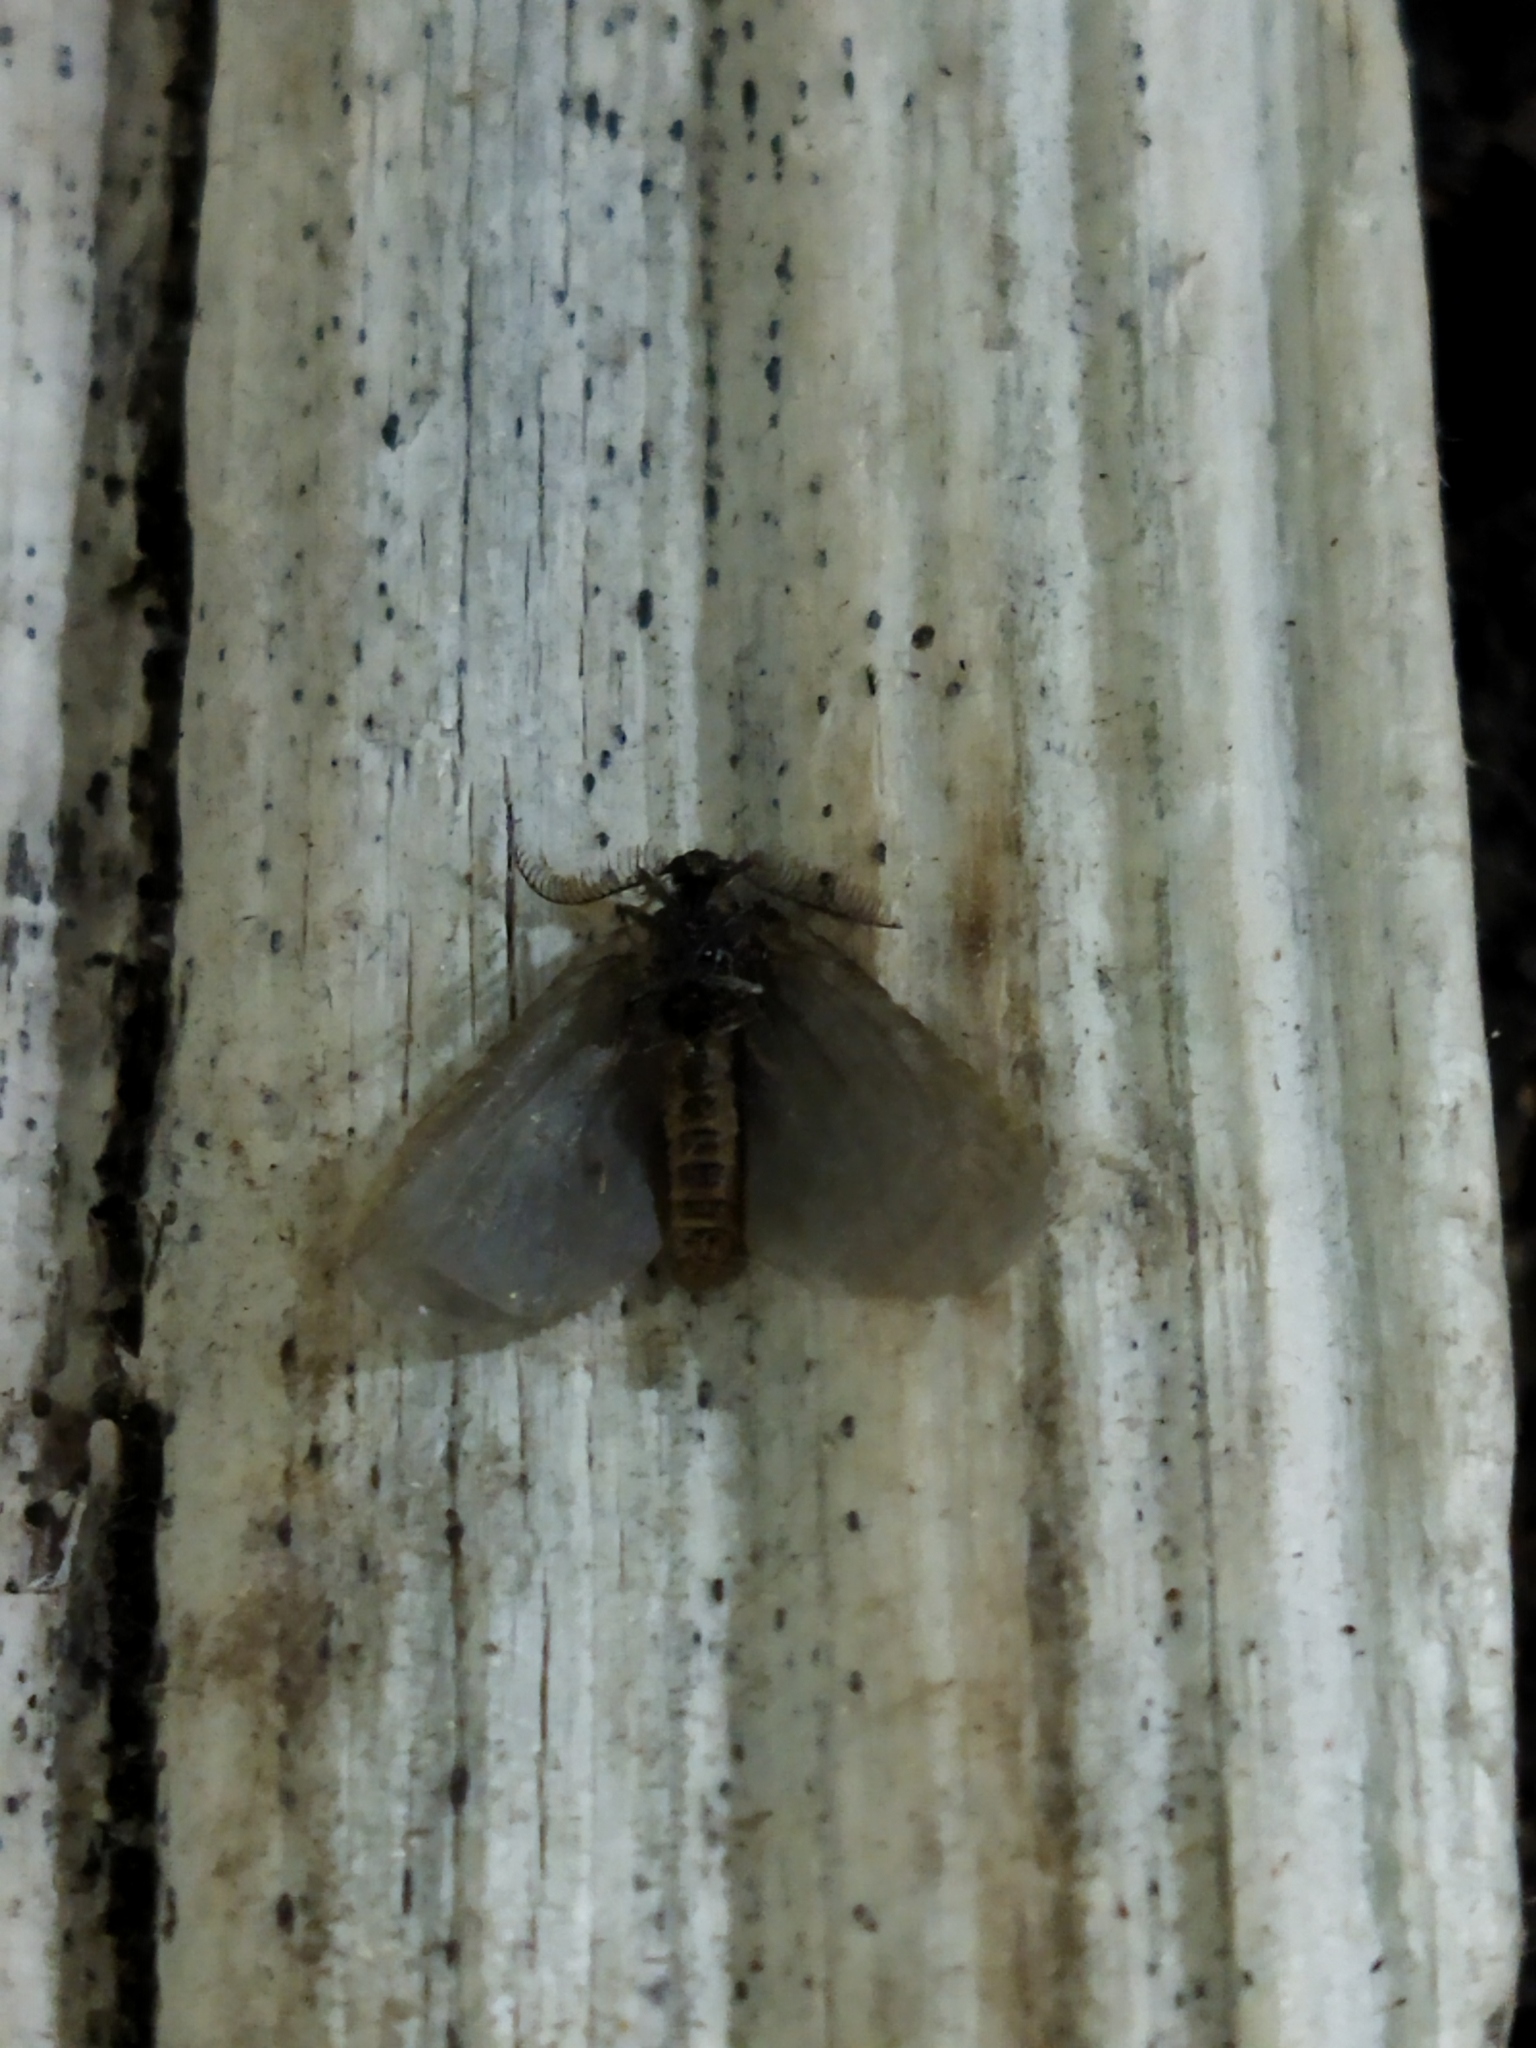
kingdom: Animalia
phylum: Arthropoda
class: Insecta
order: Lepidoptera
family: Psychidae
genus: Rebelia
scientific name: Rebelia perlucidella
